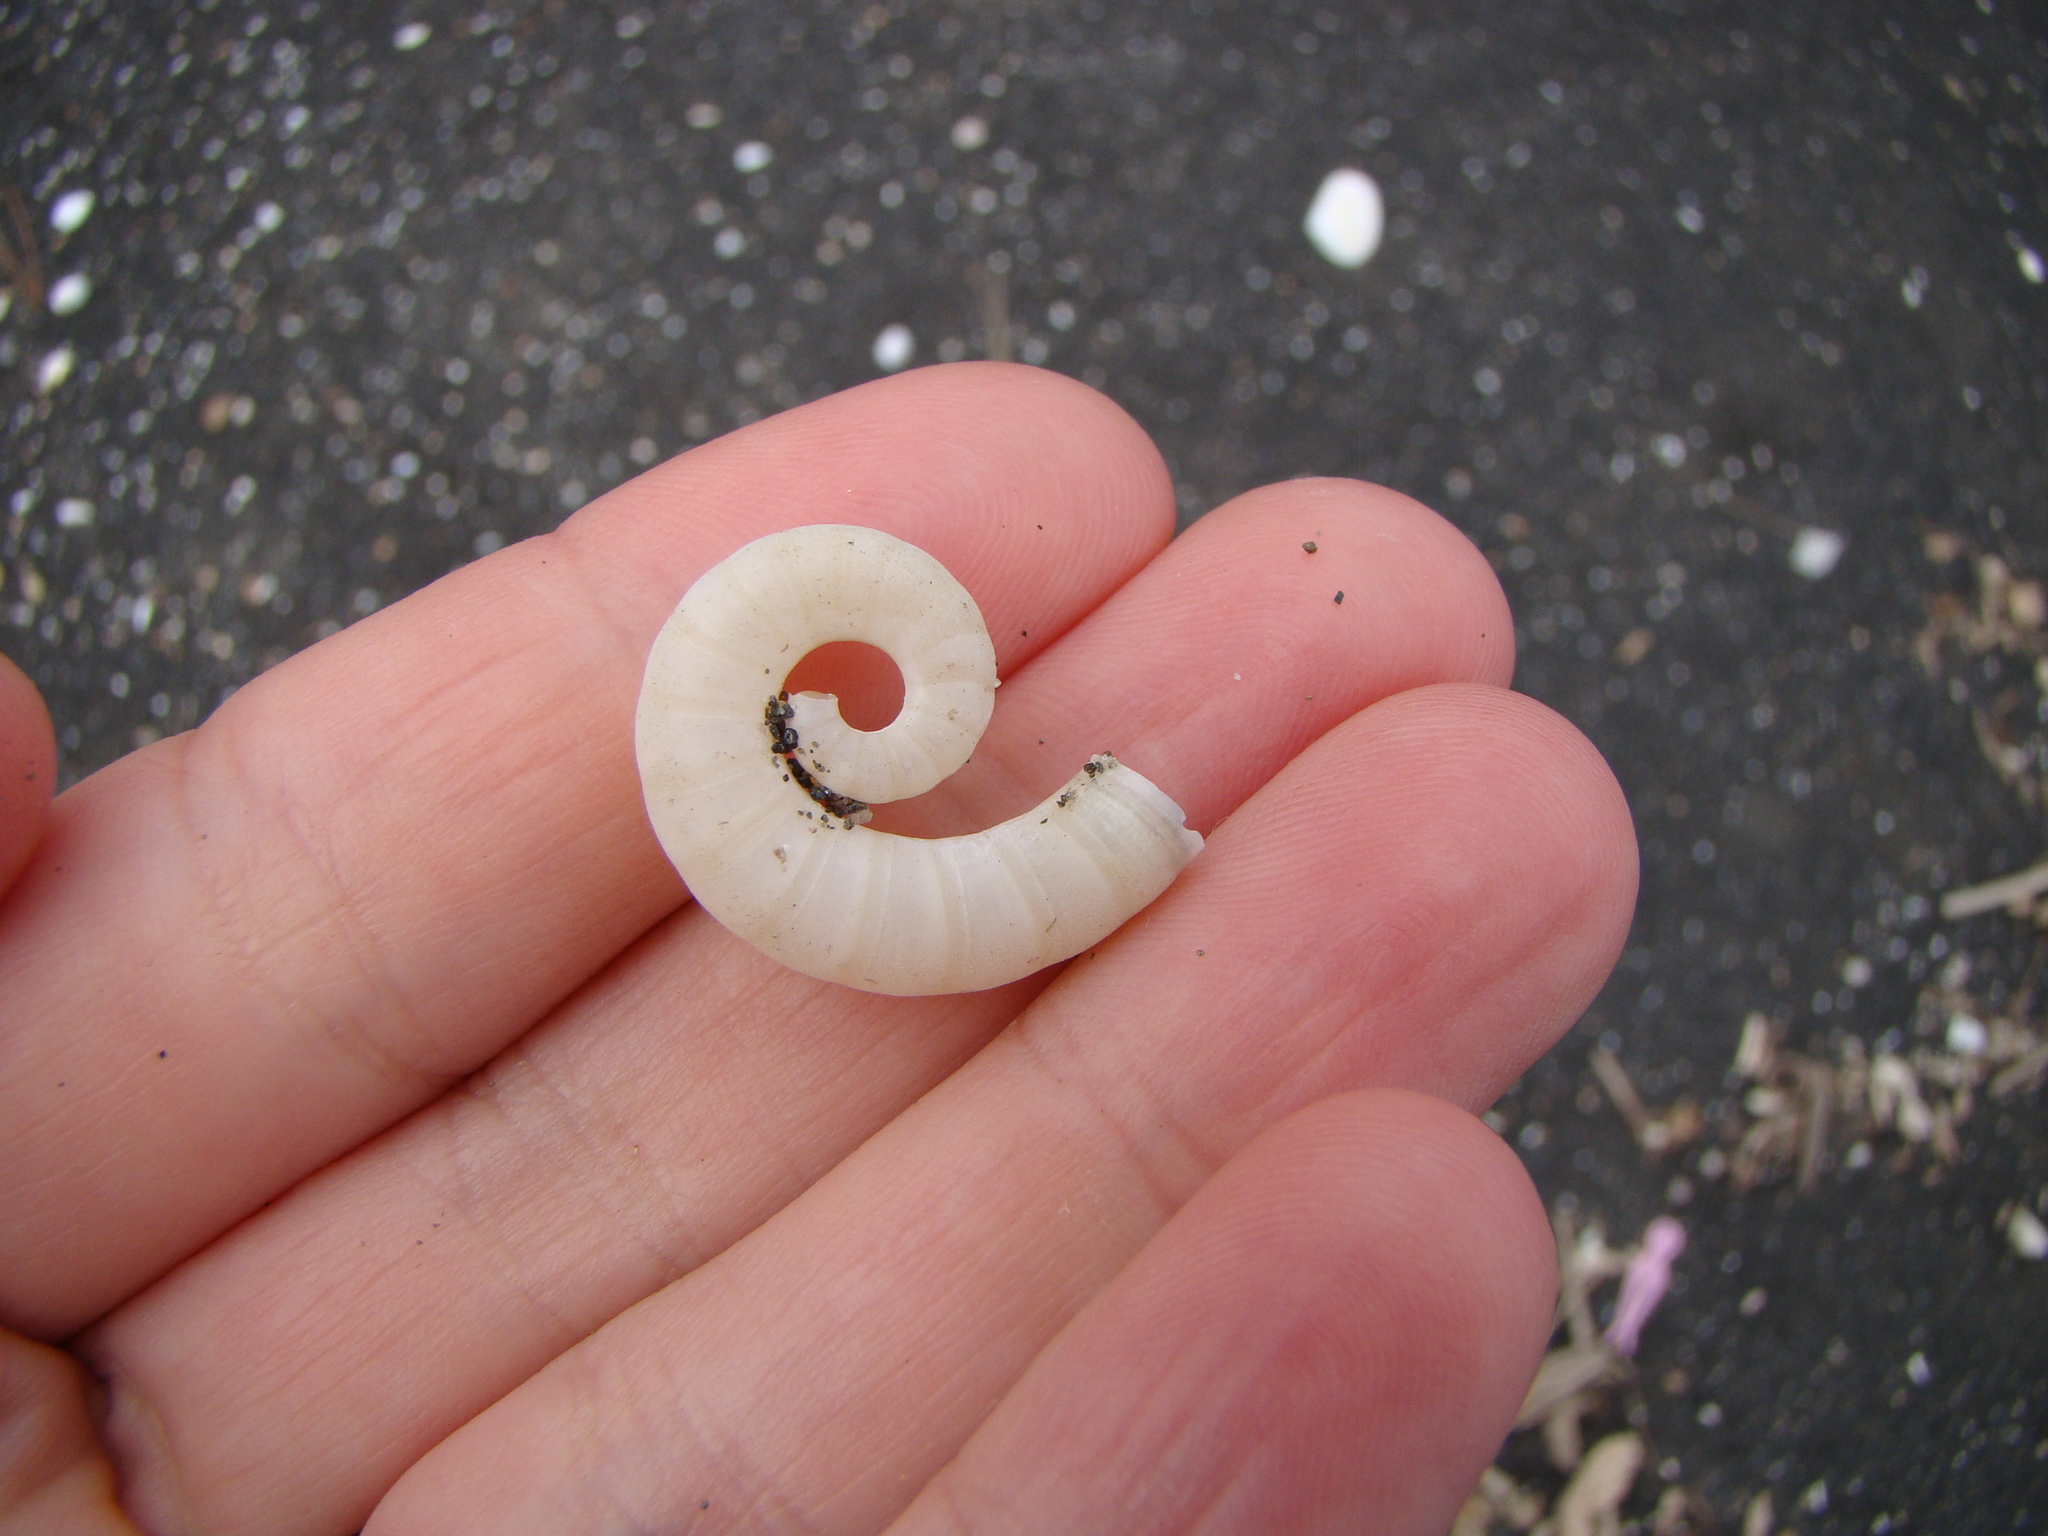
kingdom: Animalia
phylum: Mollusca
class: Cephalopoda
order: Spirulida
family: Spirulidae
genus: Spirula
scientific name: Spirula spirula
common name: Ram's horn squid
